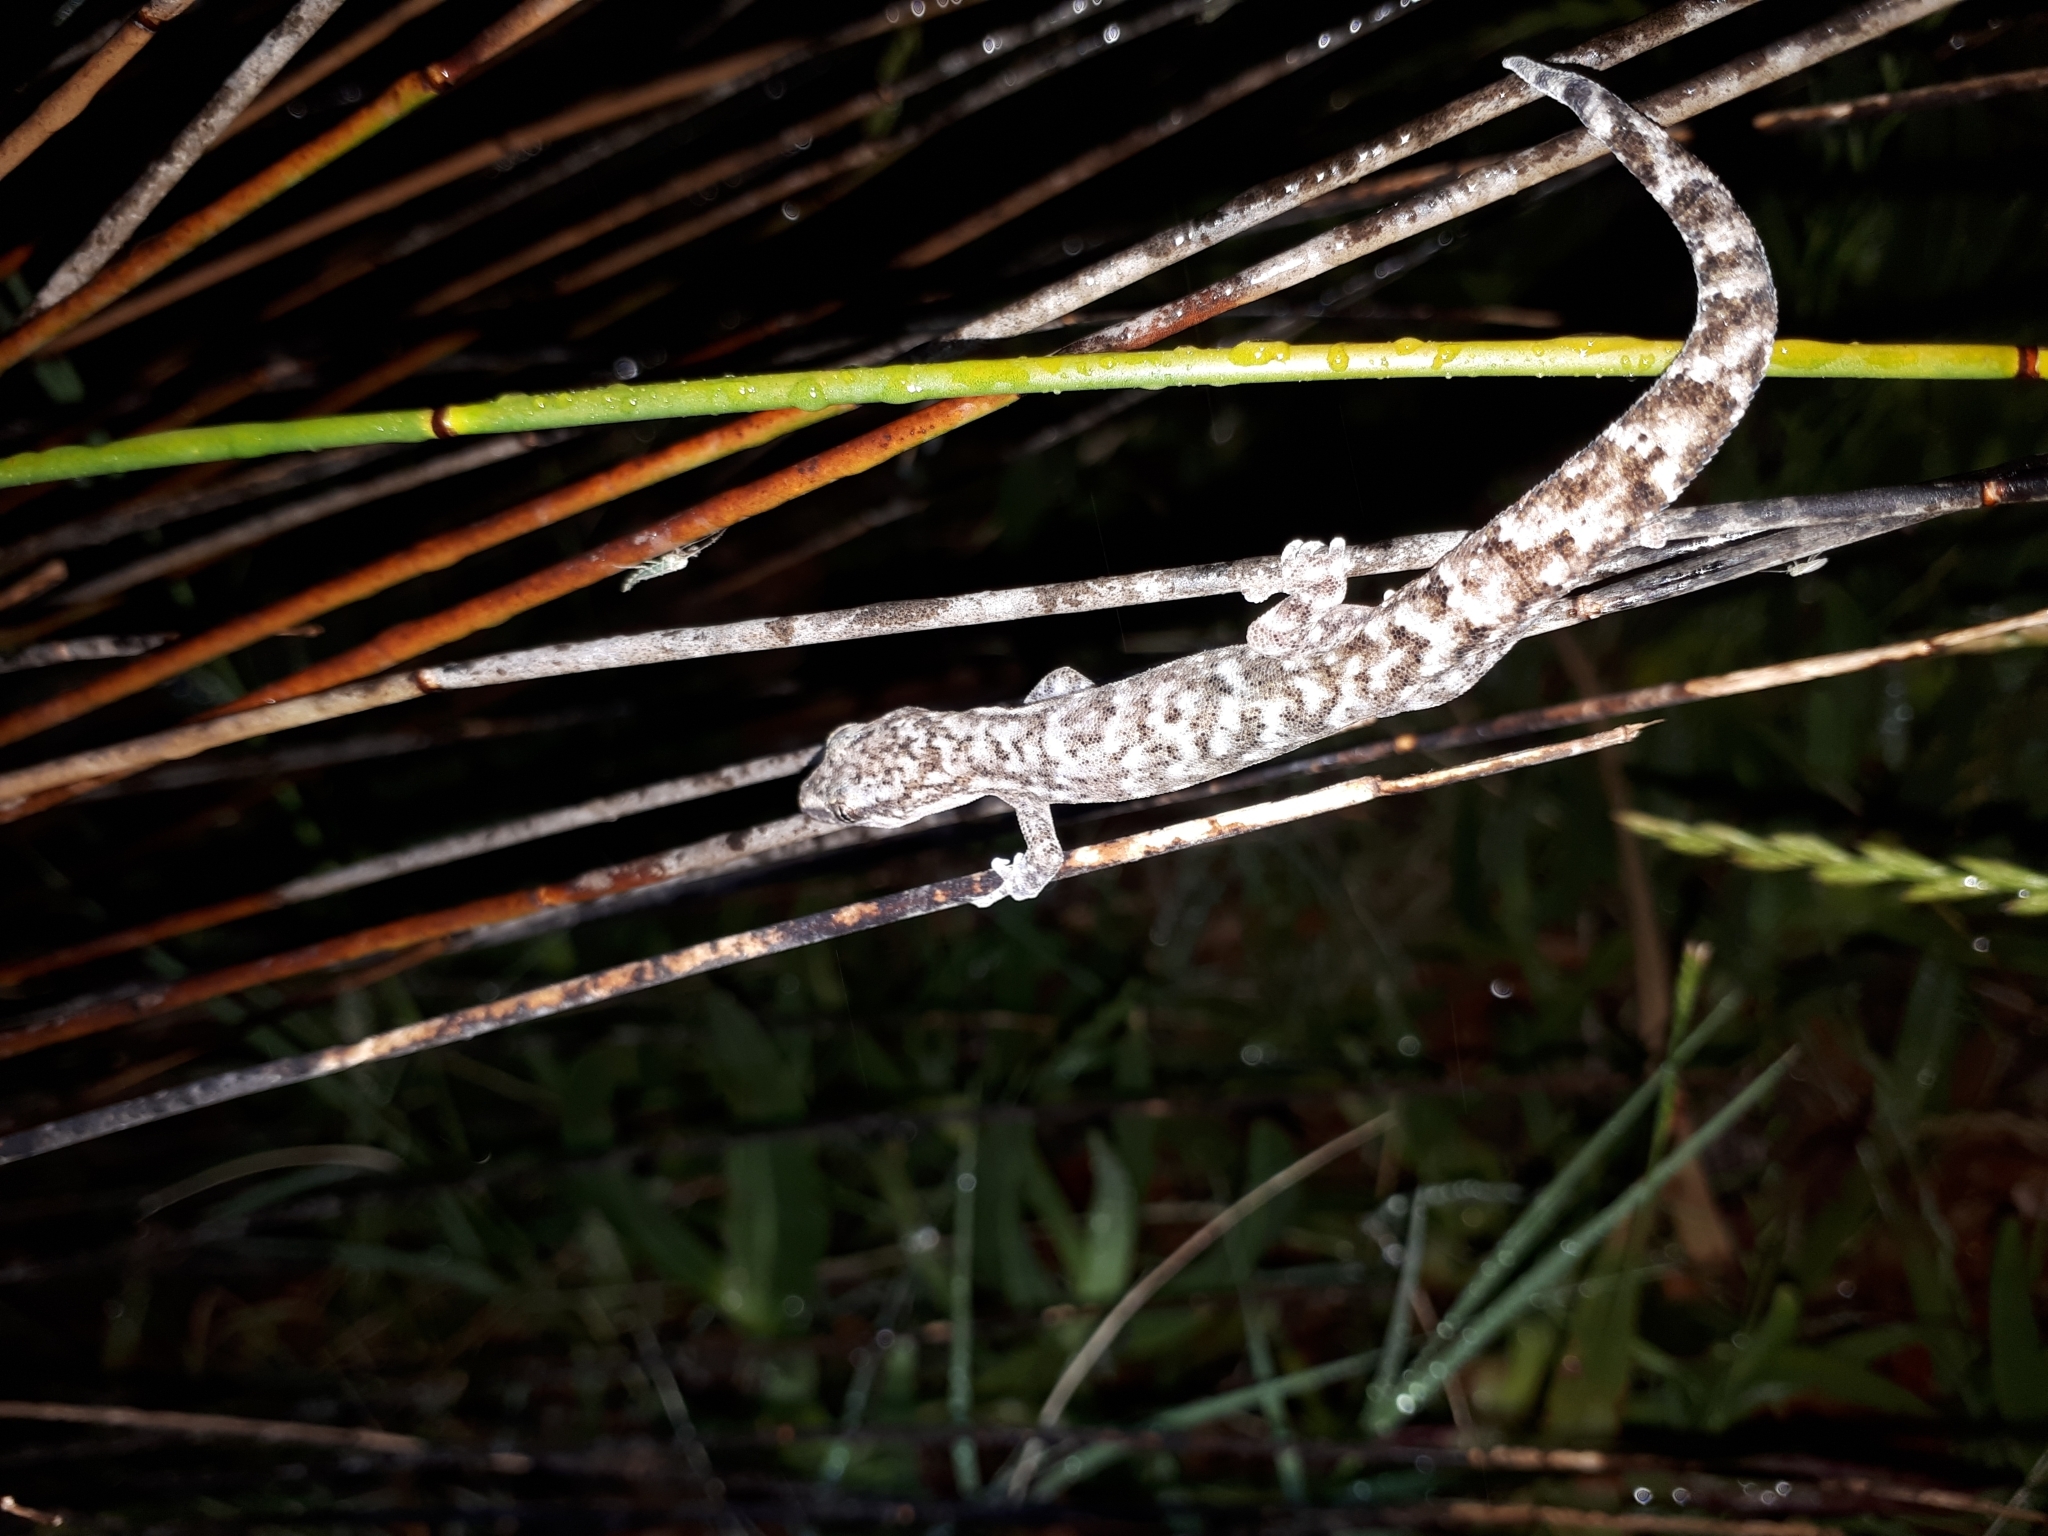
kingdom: Animalia
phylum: Chordata
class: Squamata
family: Gekkonidae
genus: Afrogecko
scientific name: Afrogecko porphyreus
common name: Marbled leaf-toed gecko
